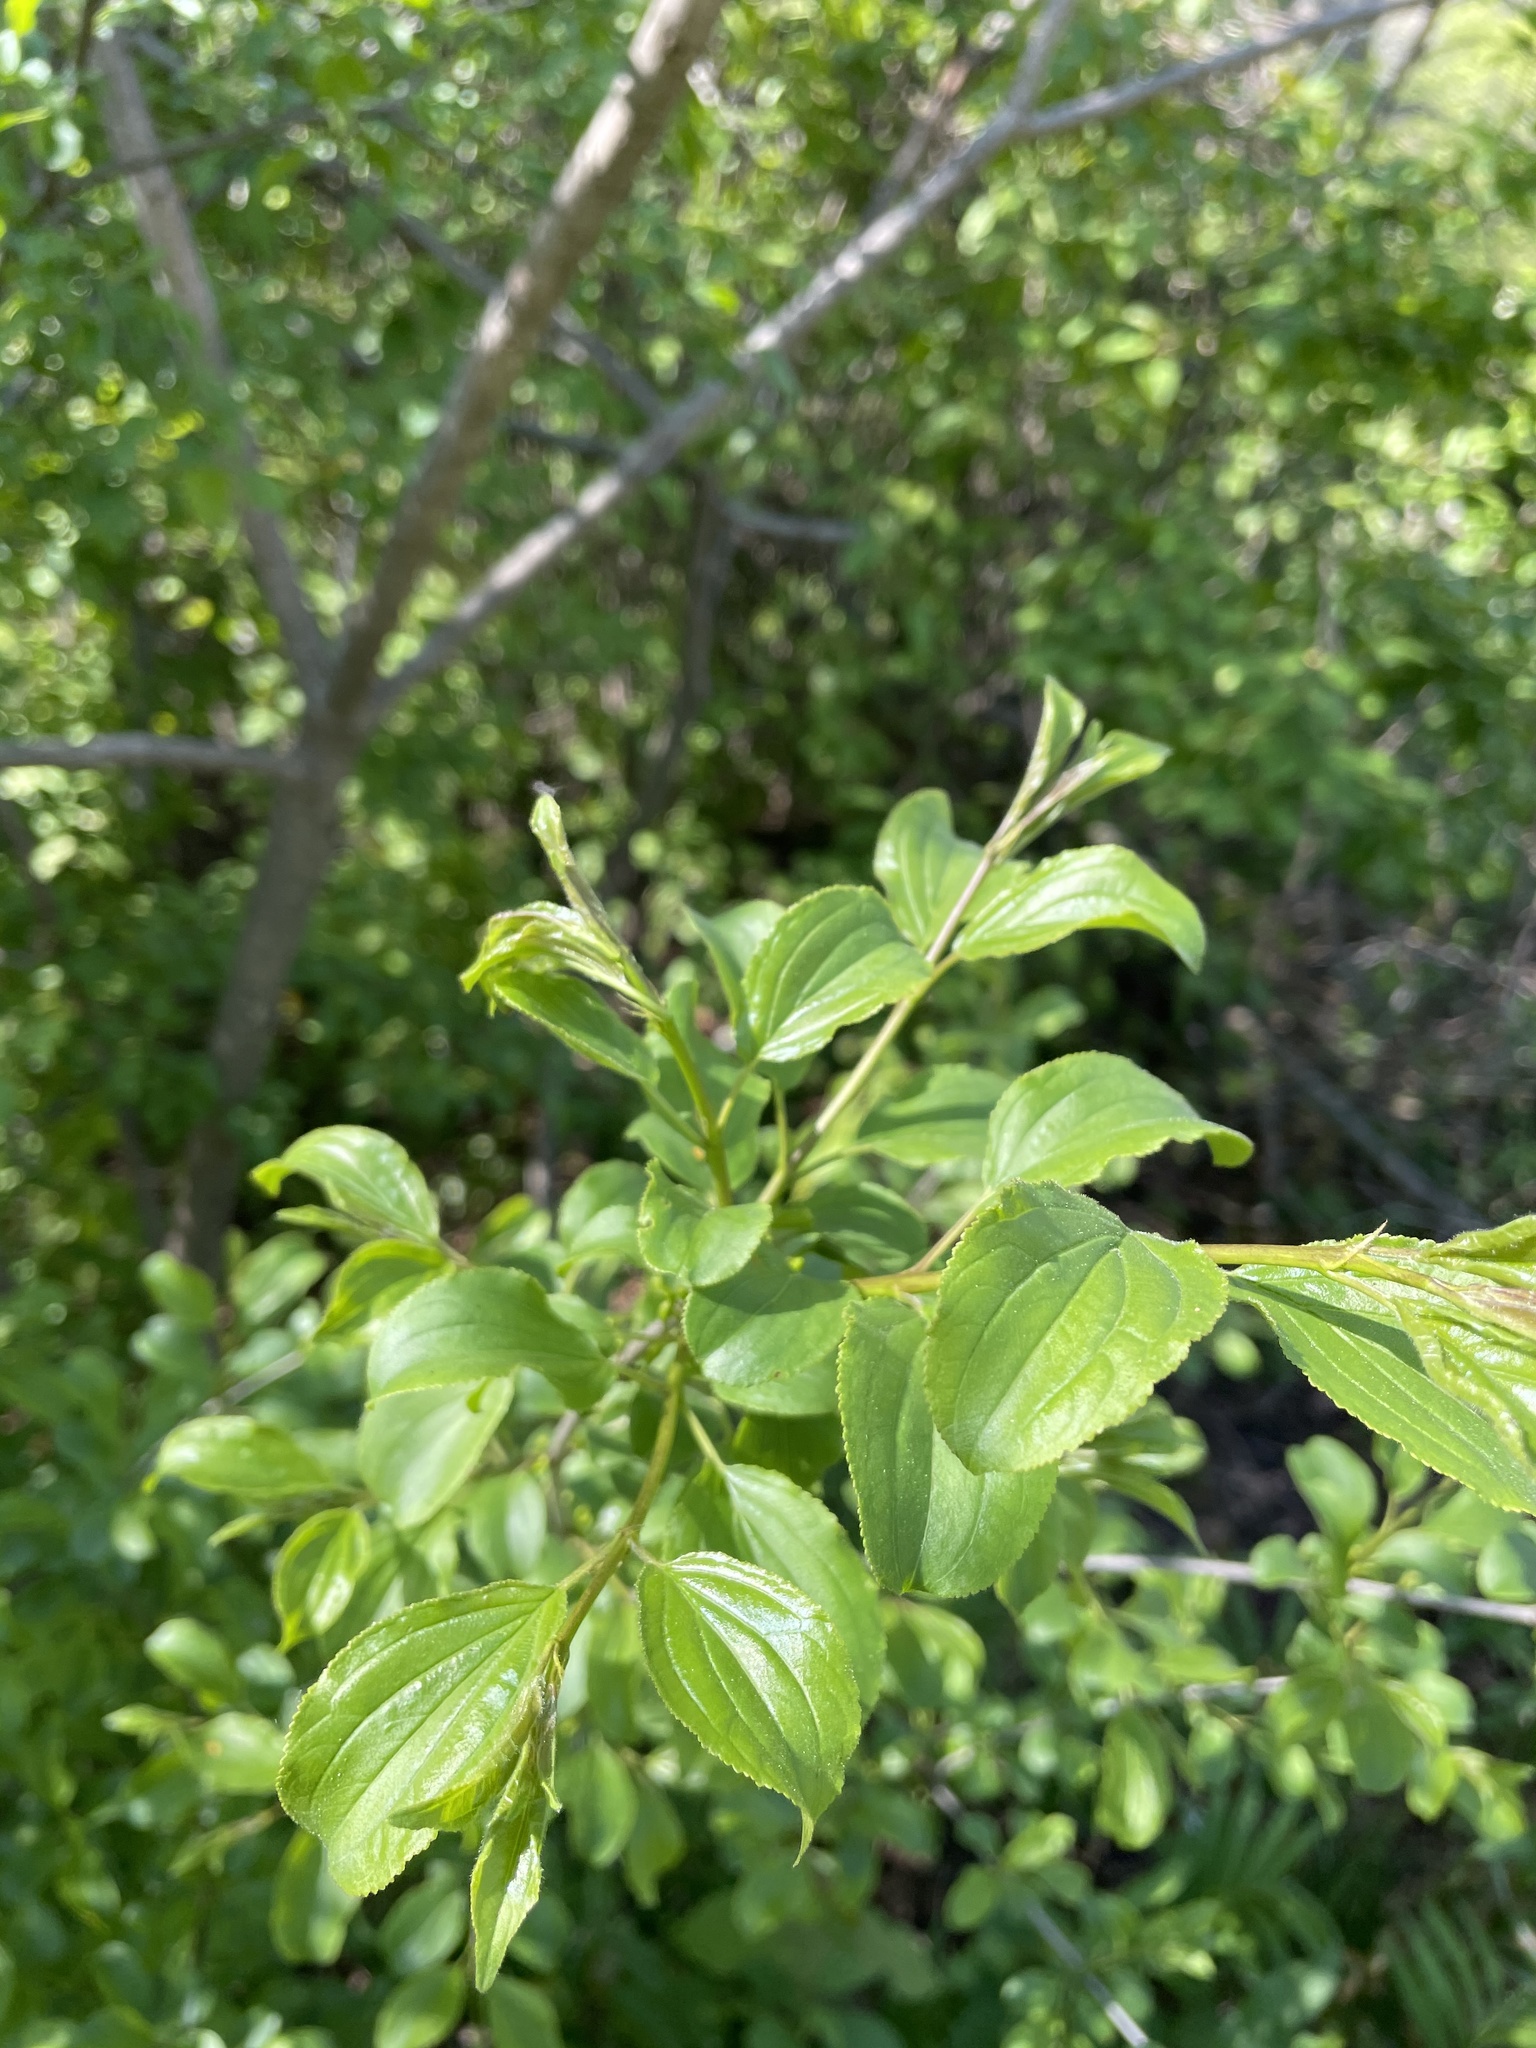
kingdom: Plantae
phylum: Tracheophyta
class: Magnoliopsida
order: Rosales
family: Rhamnaceae
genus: Rhamnus
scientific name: Rhamnus cathartica
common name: Common buckthorn
